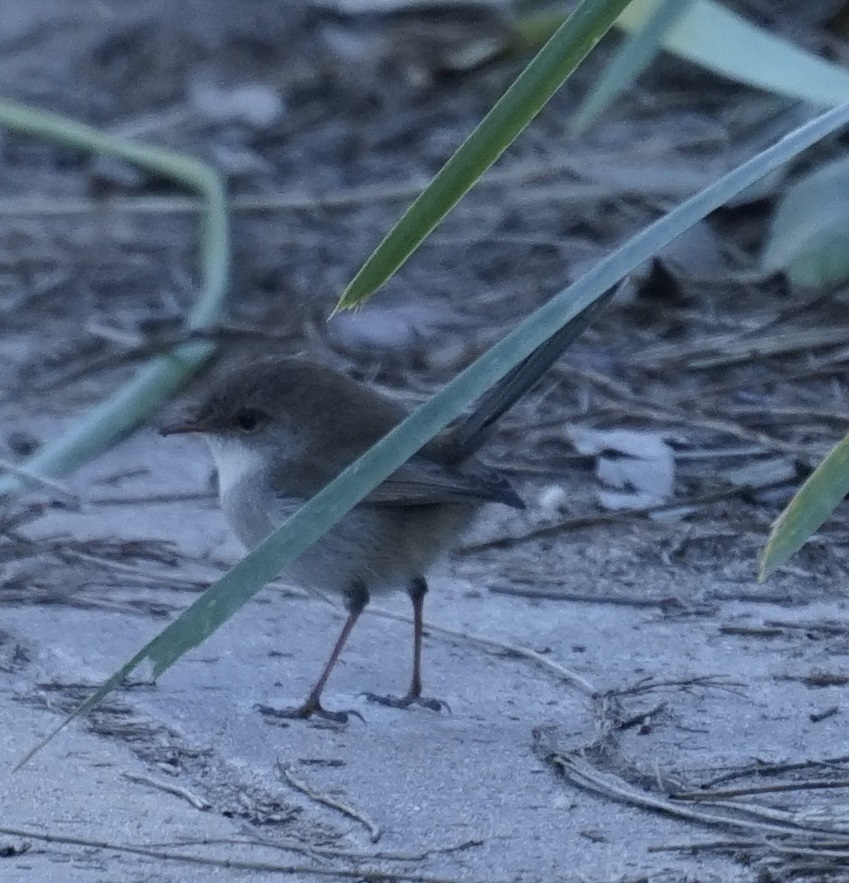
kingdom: Animalia
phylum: Chordata
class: Aves
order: Passeriformes
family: Maluridae
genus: Malurus
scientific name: Malurus cyaneus
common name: Superb fairywren
